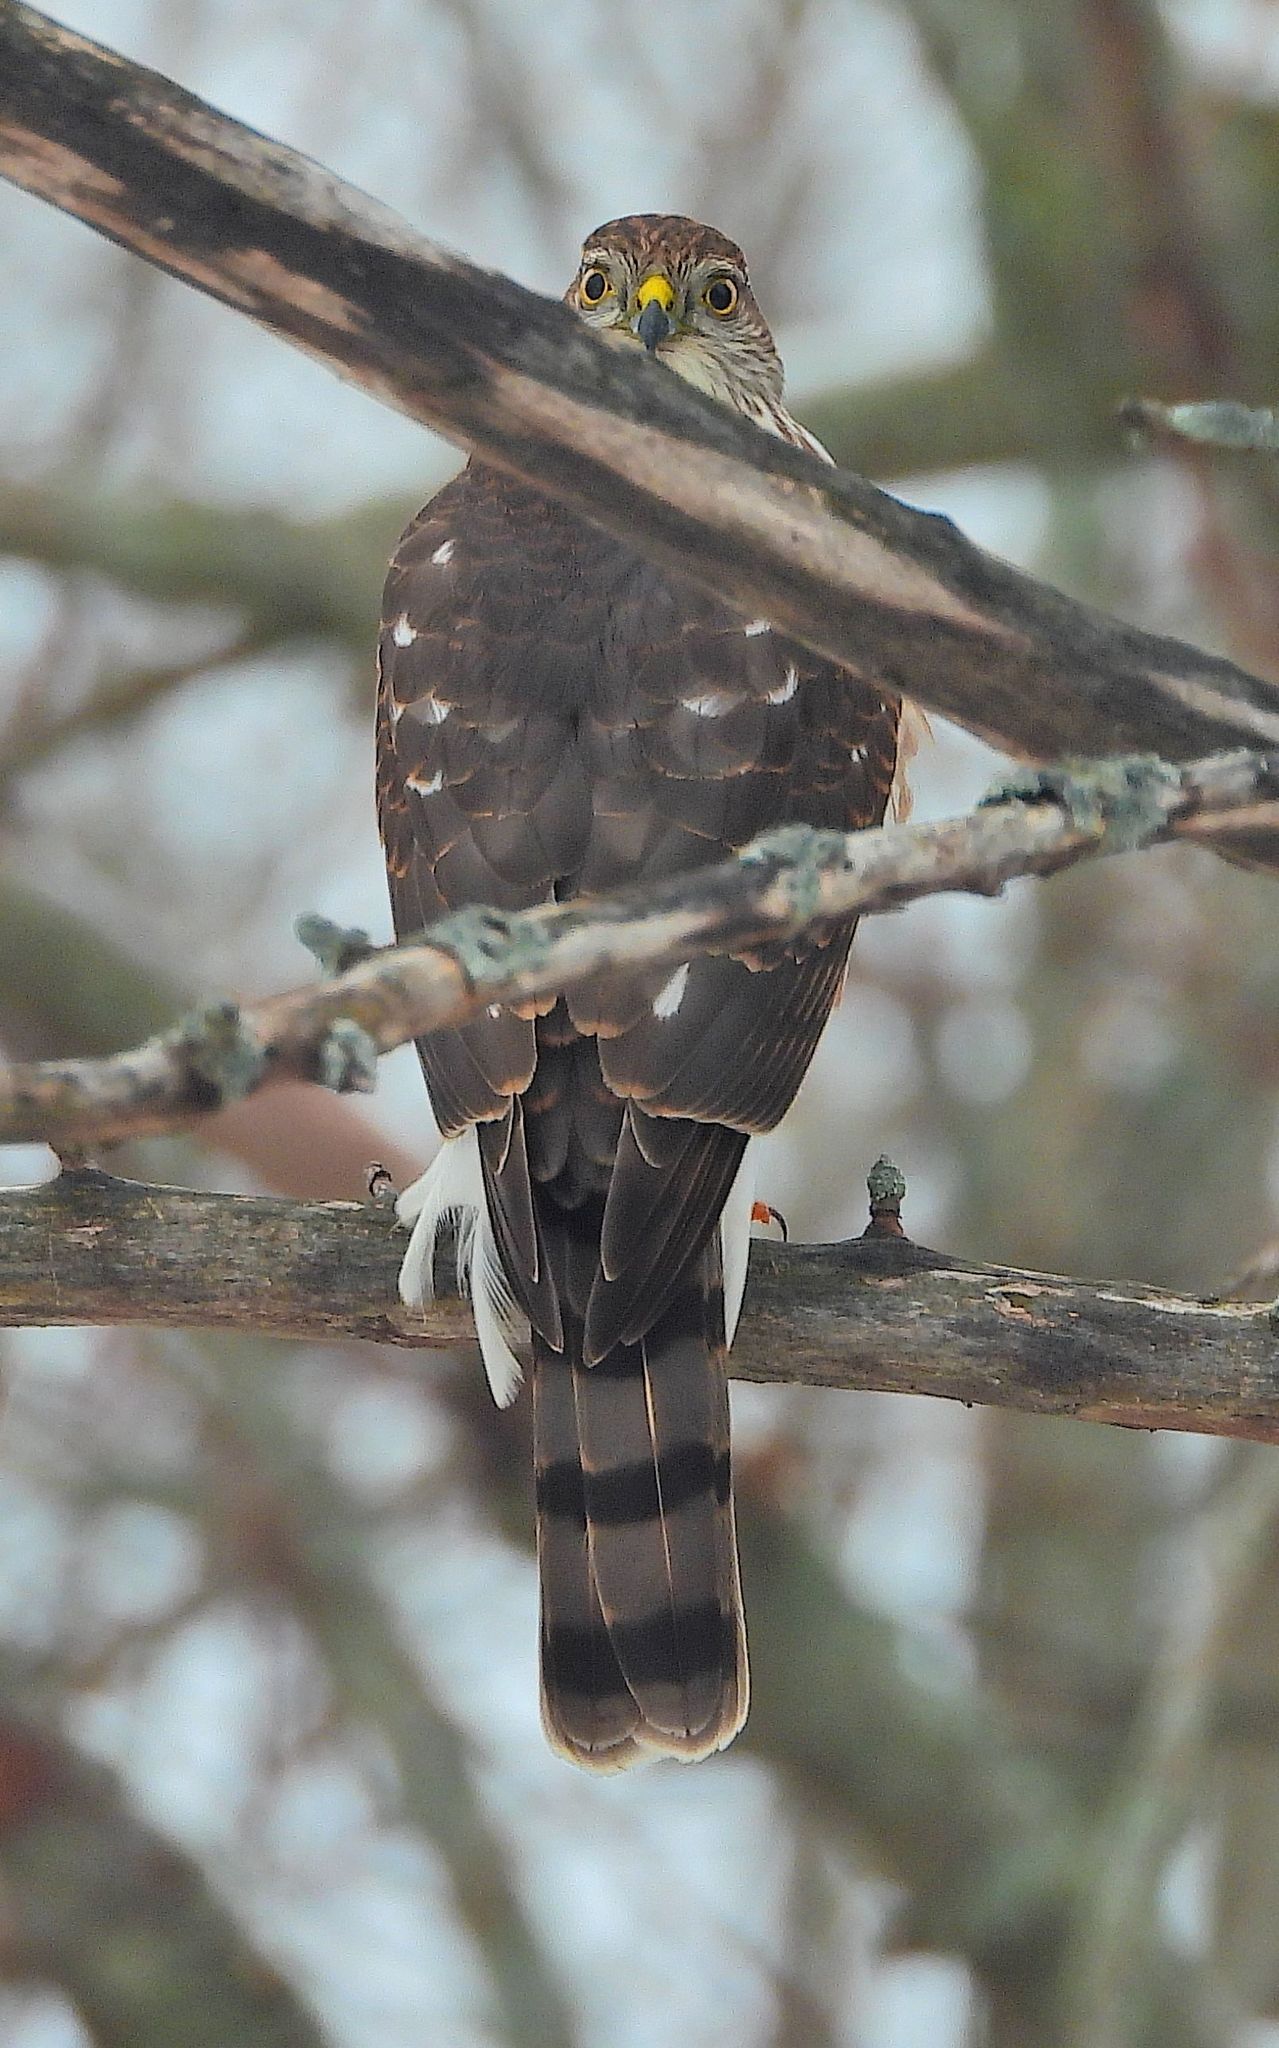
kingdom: Animalia
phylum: Chordata
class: Aves
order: Accipitriformes
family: Accipitridae
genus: Accipiter
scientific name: Accipiter striatus
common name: Sharp-shinned hawk
